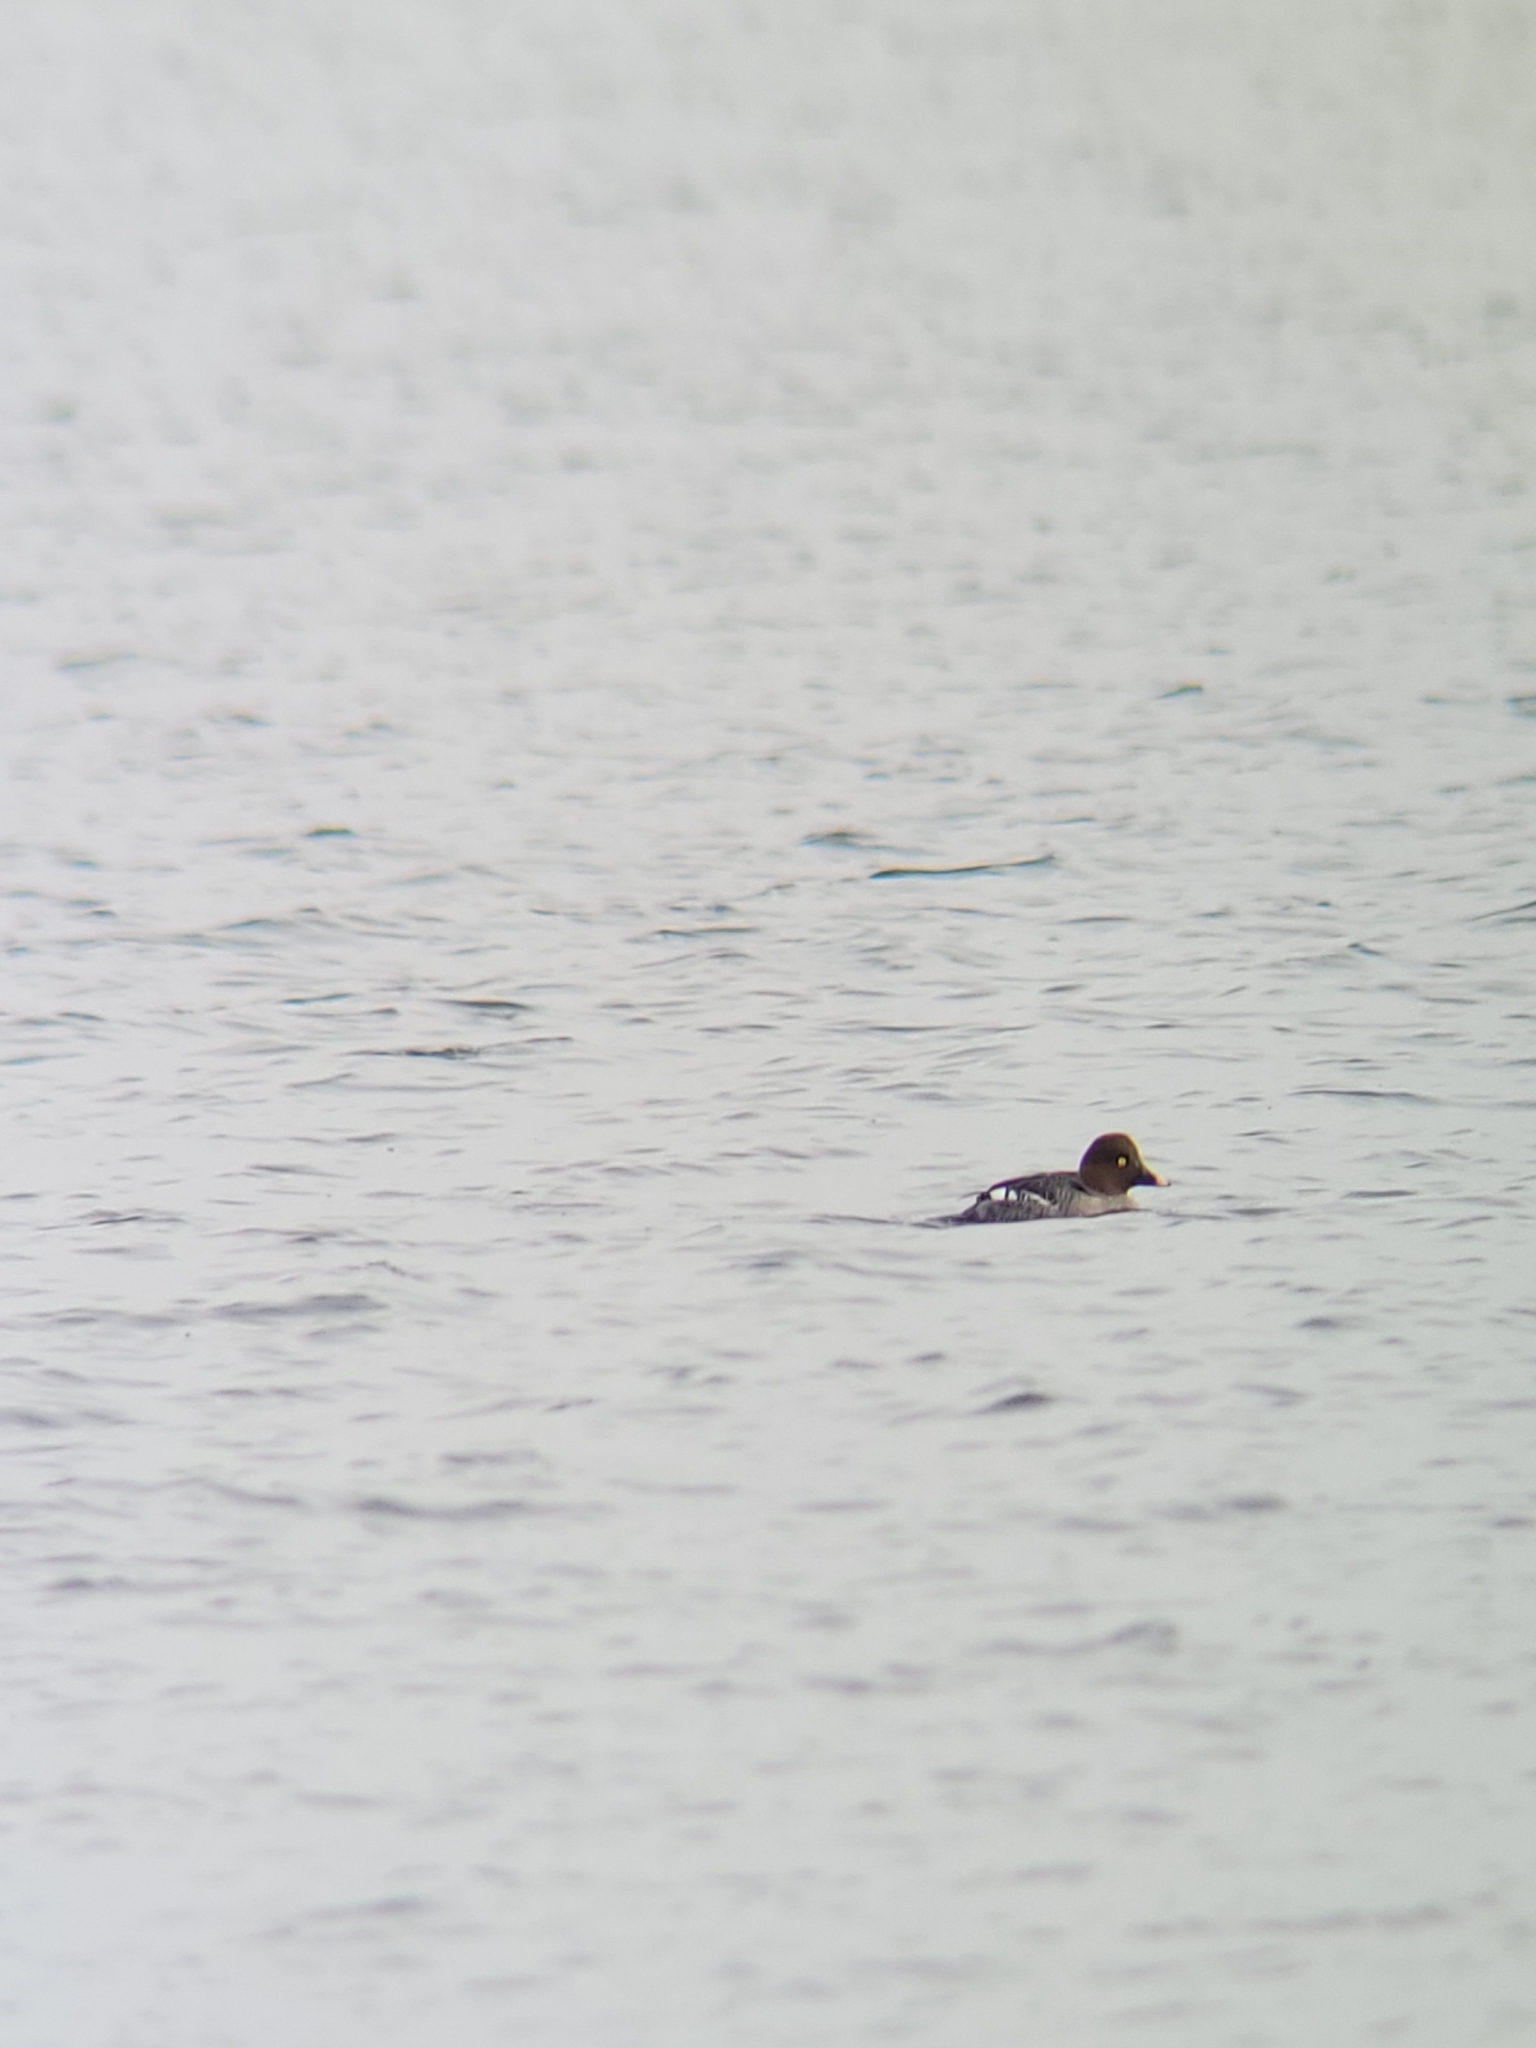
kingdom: Animalia
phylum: Chordata
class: Aves
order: Anseriformes
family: Anatidae
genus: Bucephala
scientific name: Bucephala clangula
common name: Common goldeneye
